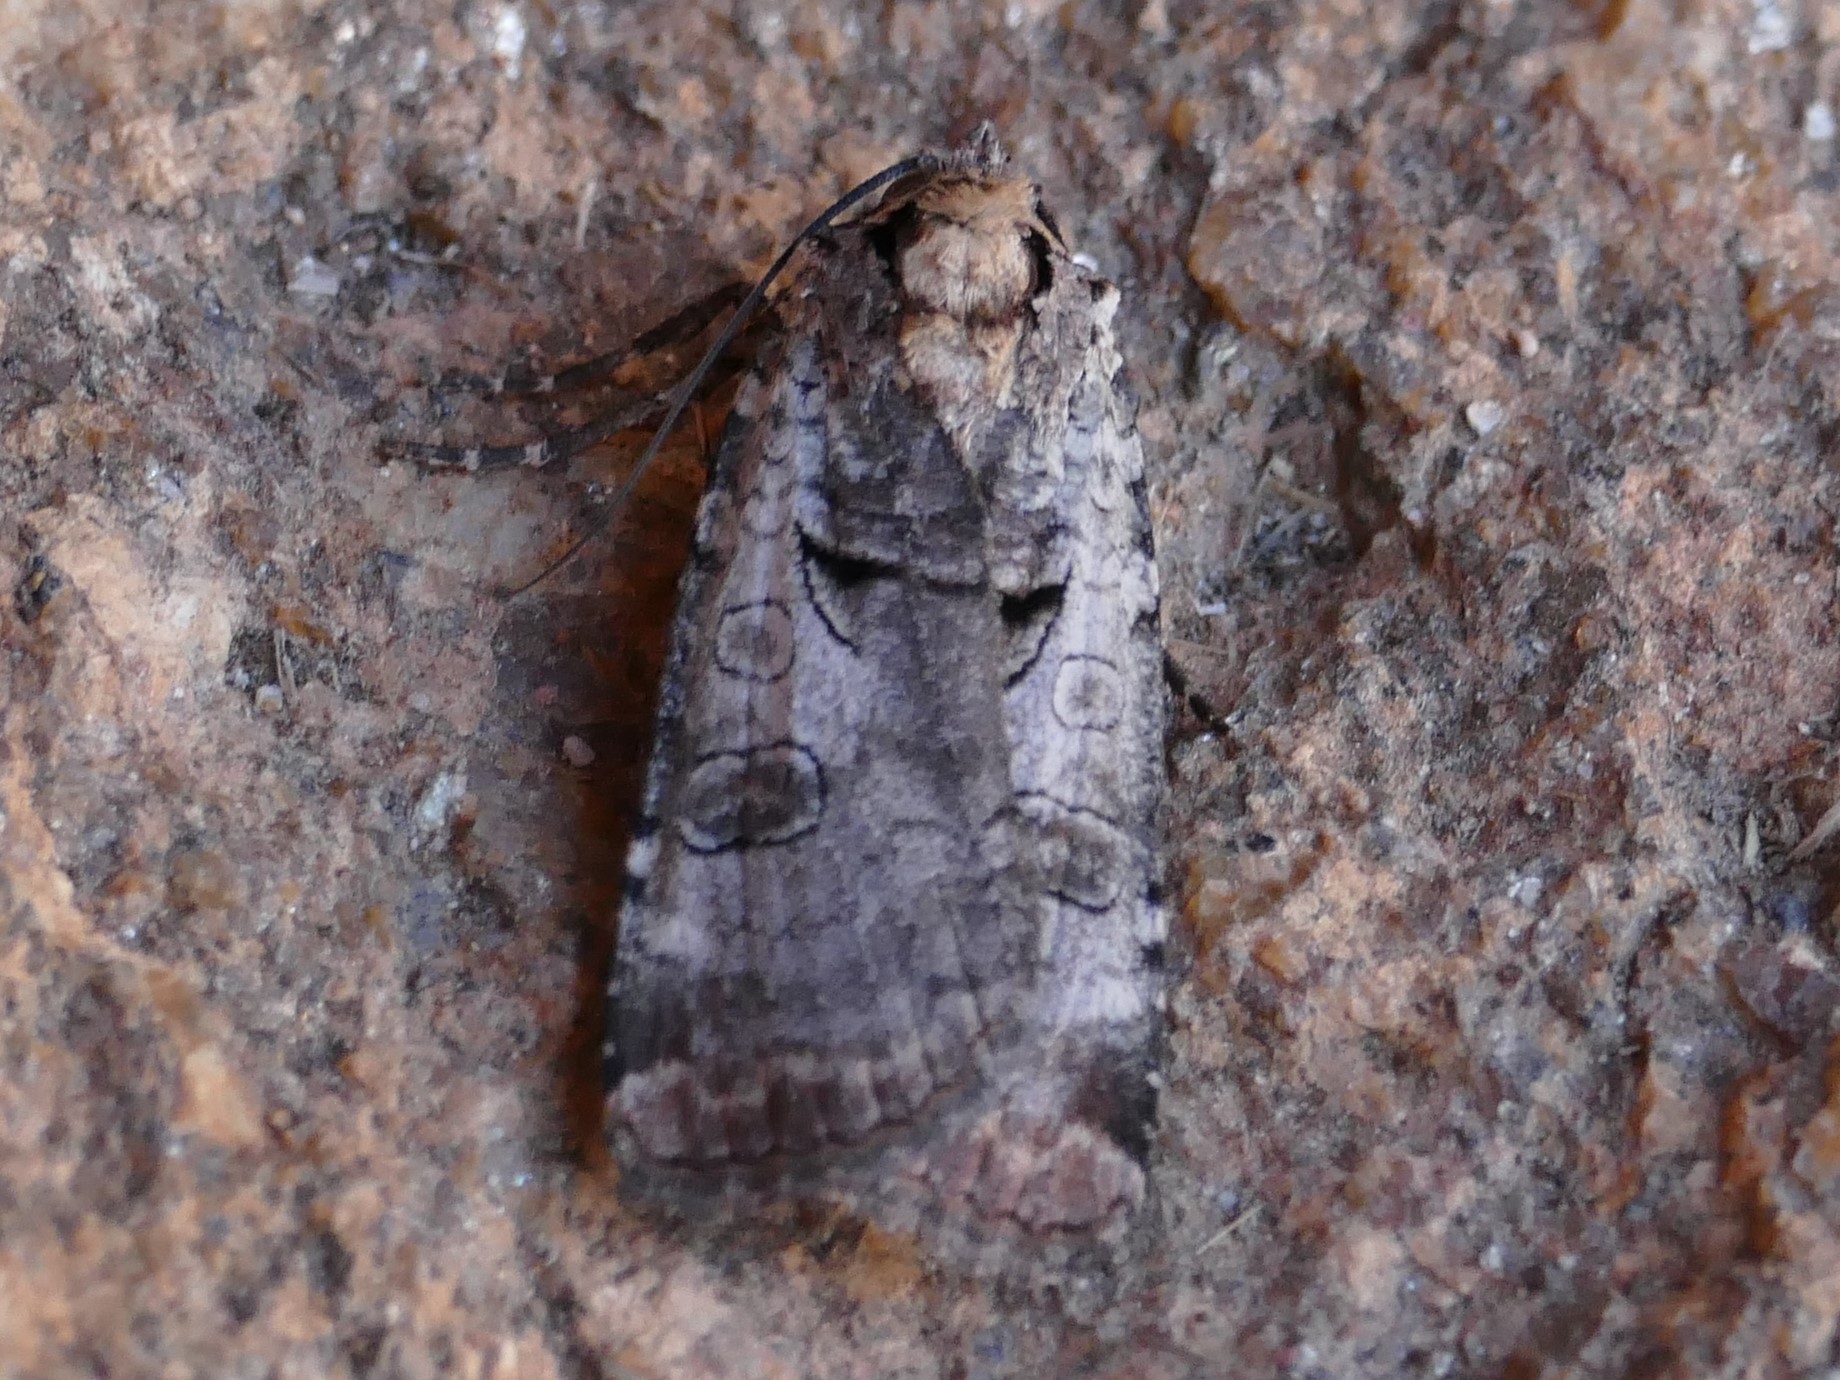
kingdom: Animalia
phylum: Arthropoda
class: Insecta
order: Lepidoptera
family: Noctuidae
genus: Epilecta
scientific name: Epilecta linogrisea
